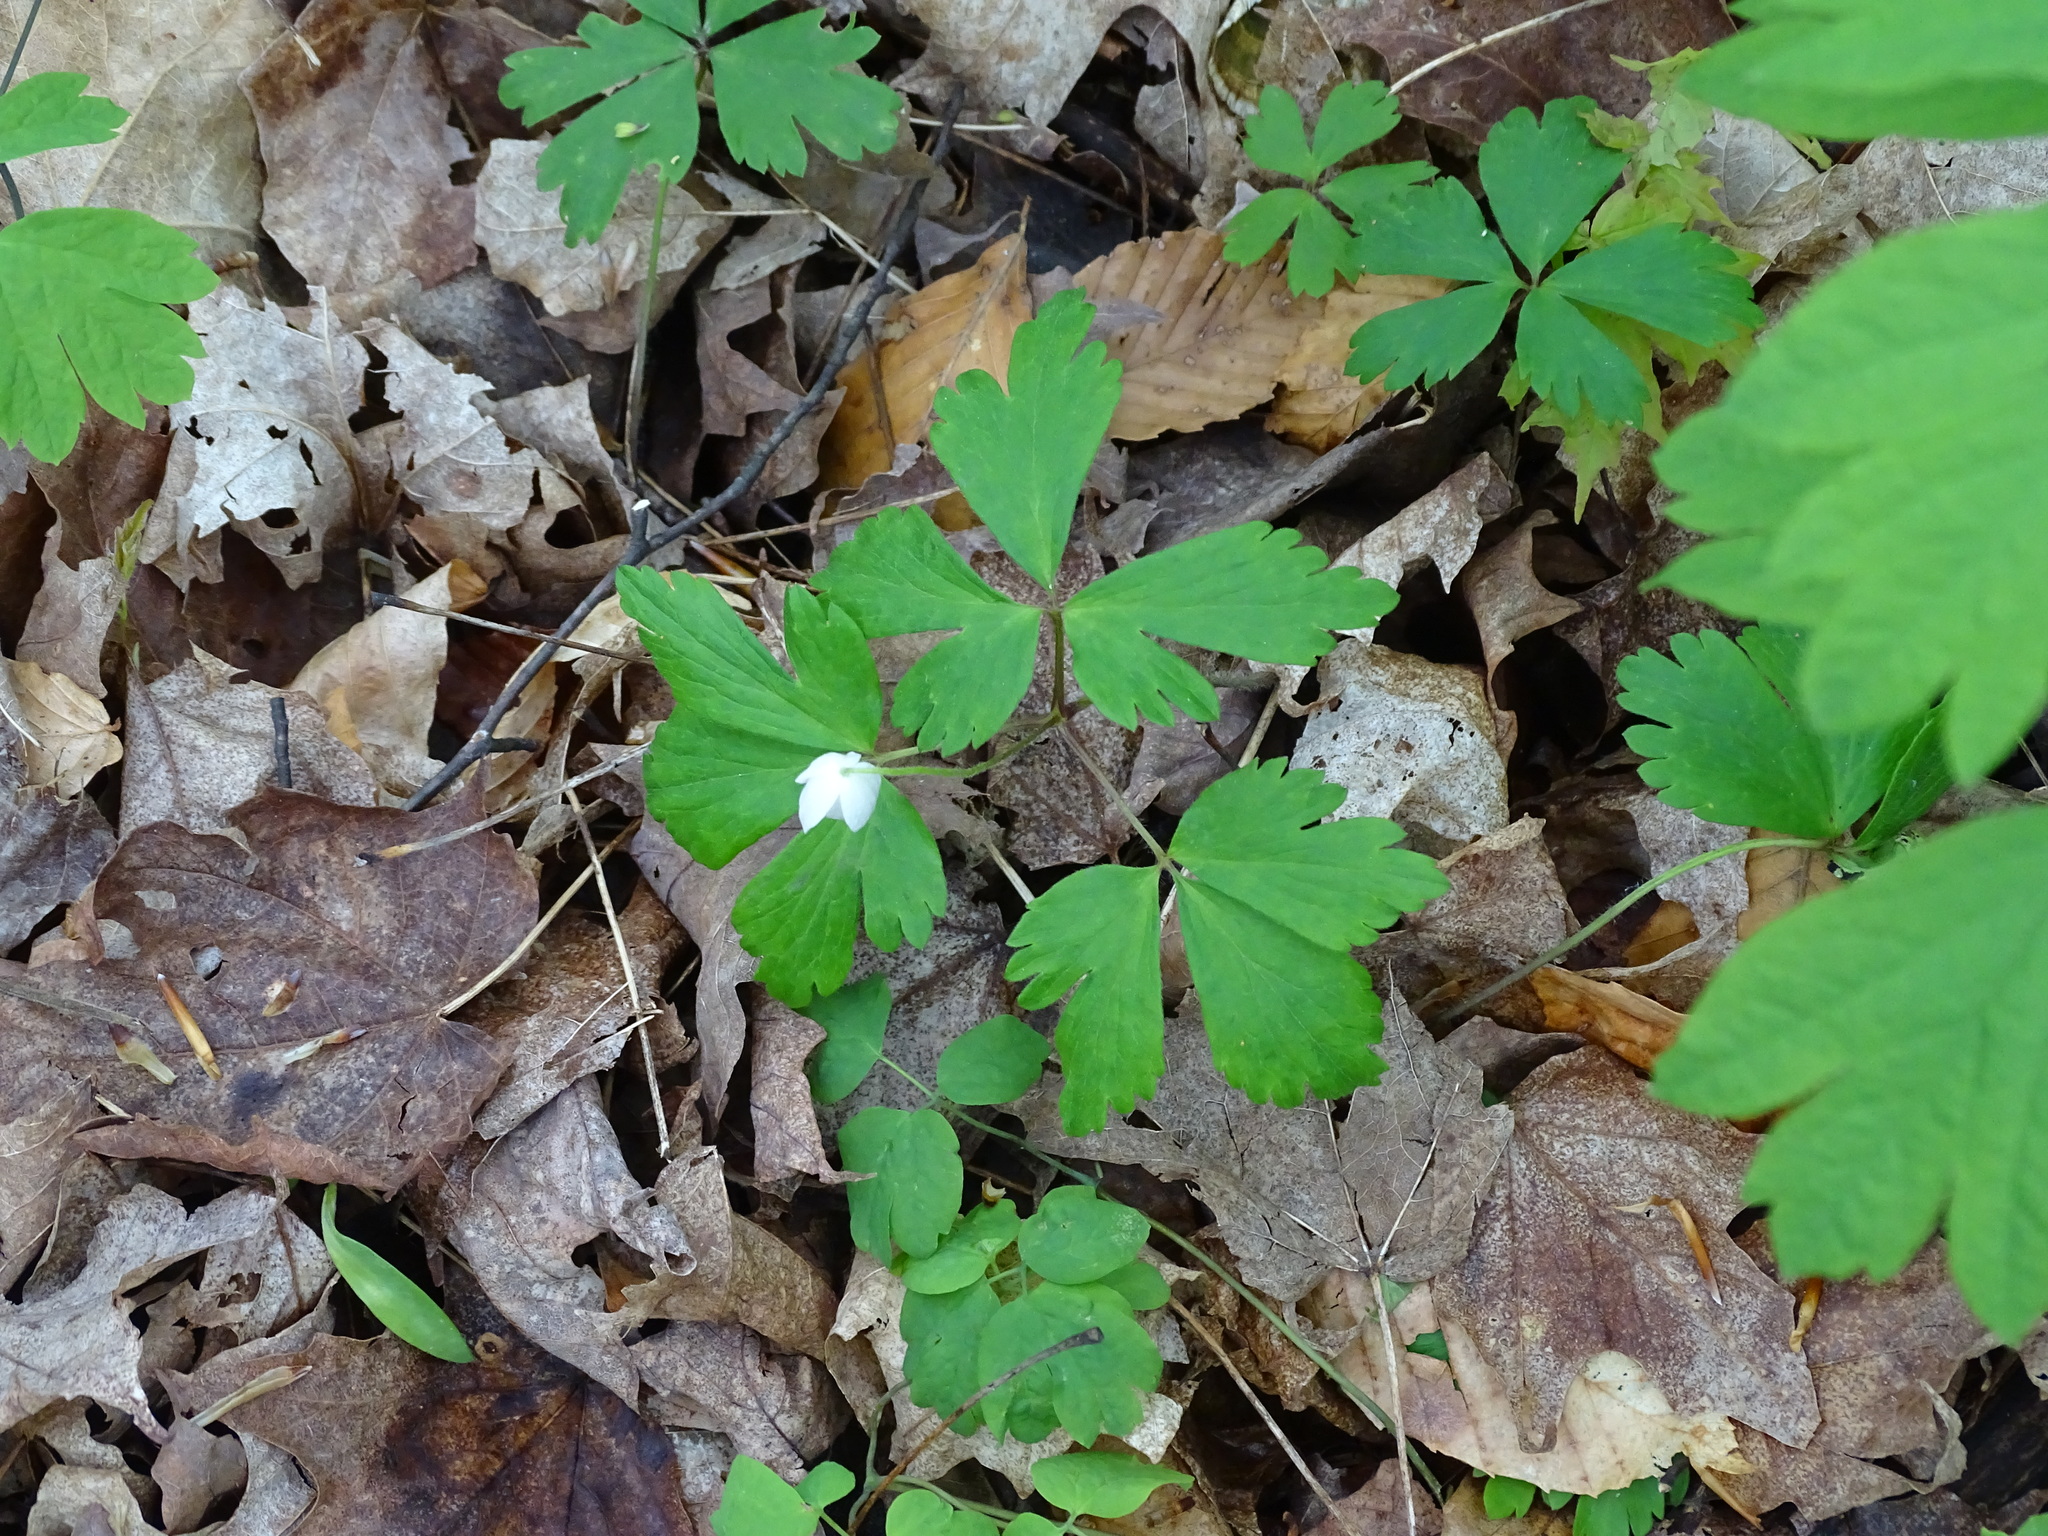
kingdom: Plantae
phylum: Tracheophyta
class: Magnoliopsida
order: Ranunculales
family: Ranunculaceae
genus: Anemone
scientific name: Anemone quinquefolia
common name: Wood anemone
